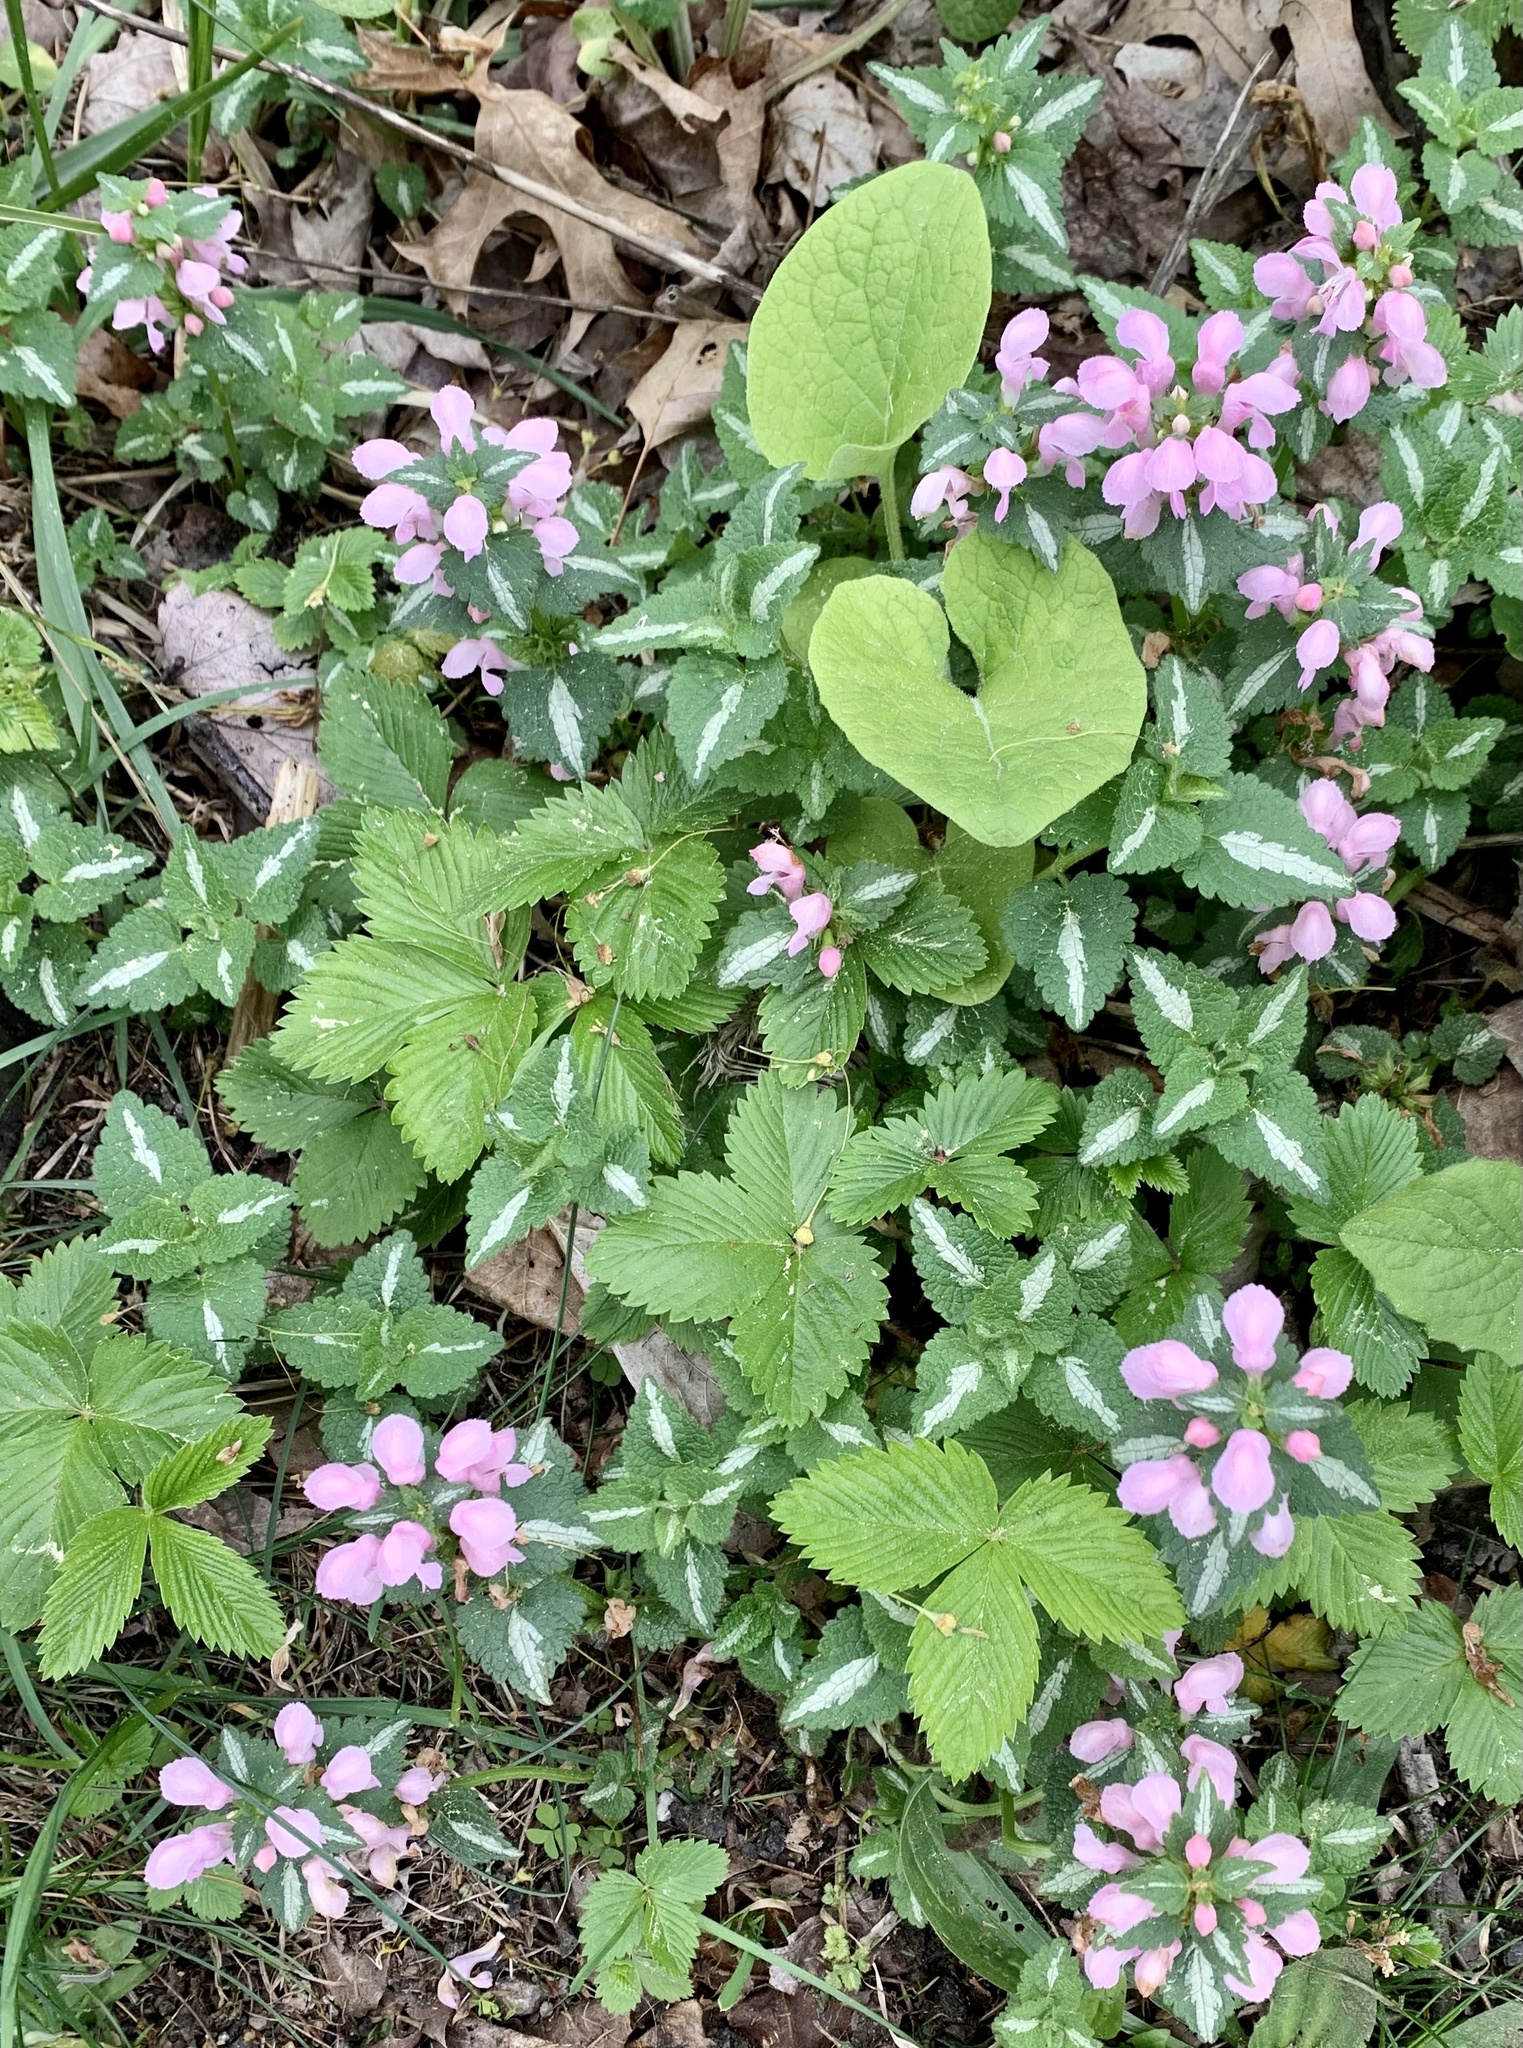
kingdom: Plantae
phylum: Tracheophyta
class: Magnoliopsida
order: Lamiales
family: Lamiaceae
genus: Lamium
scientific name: Lamium maculatum
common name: Spotted dead-nettle
